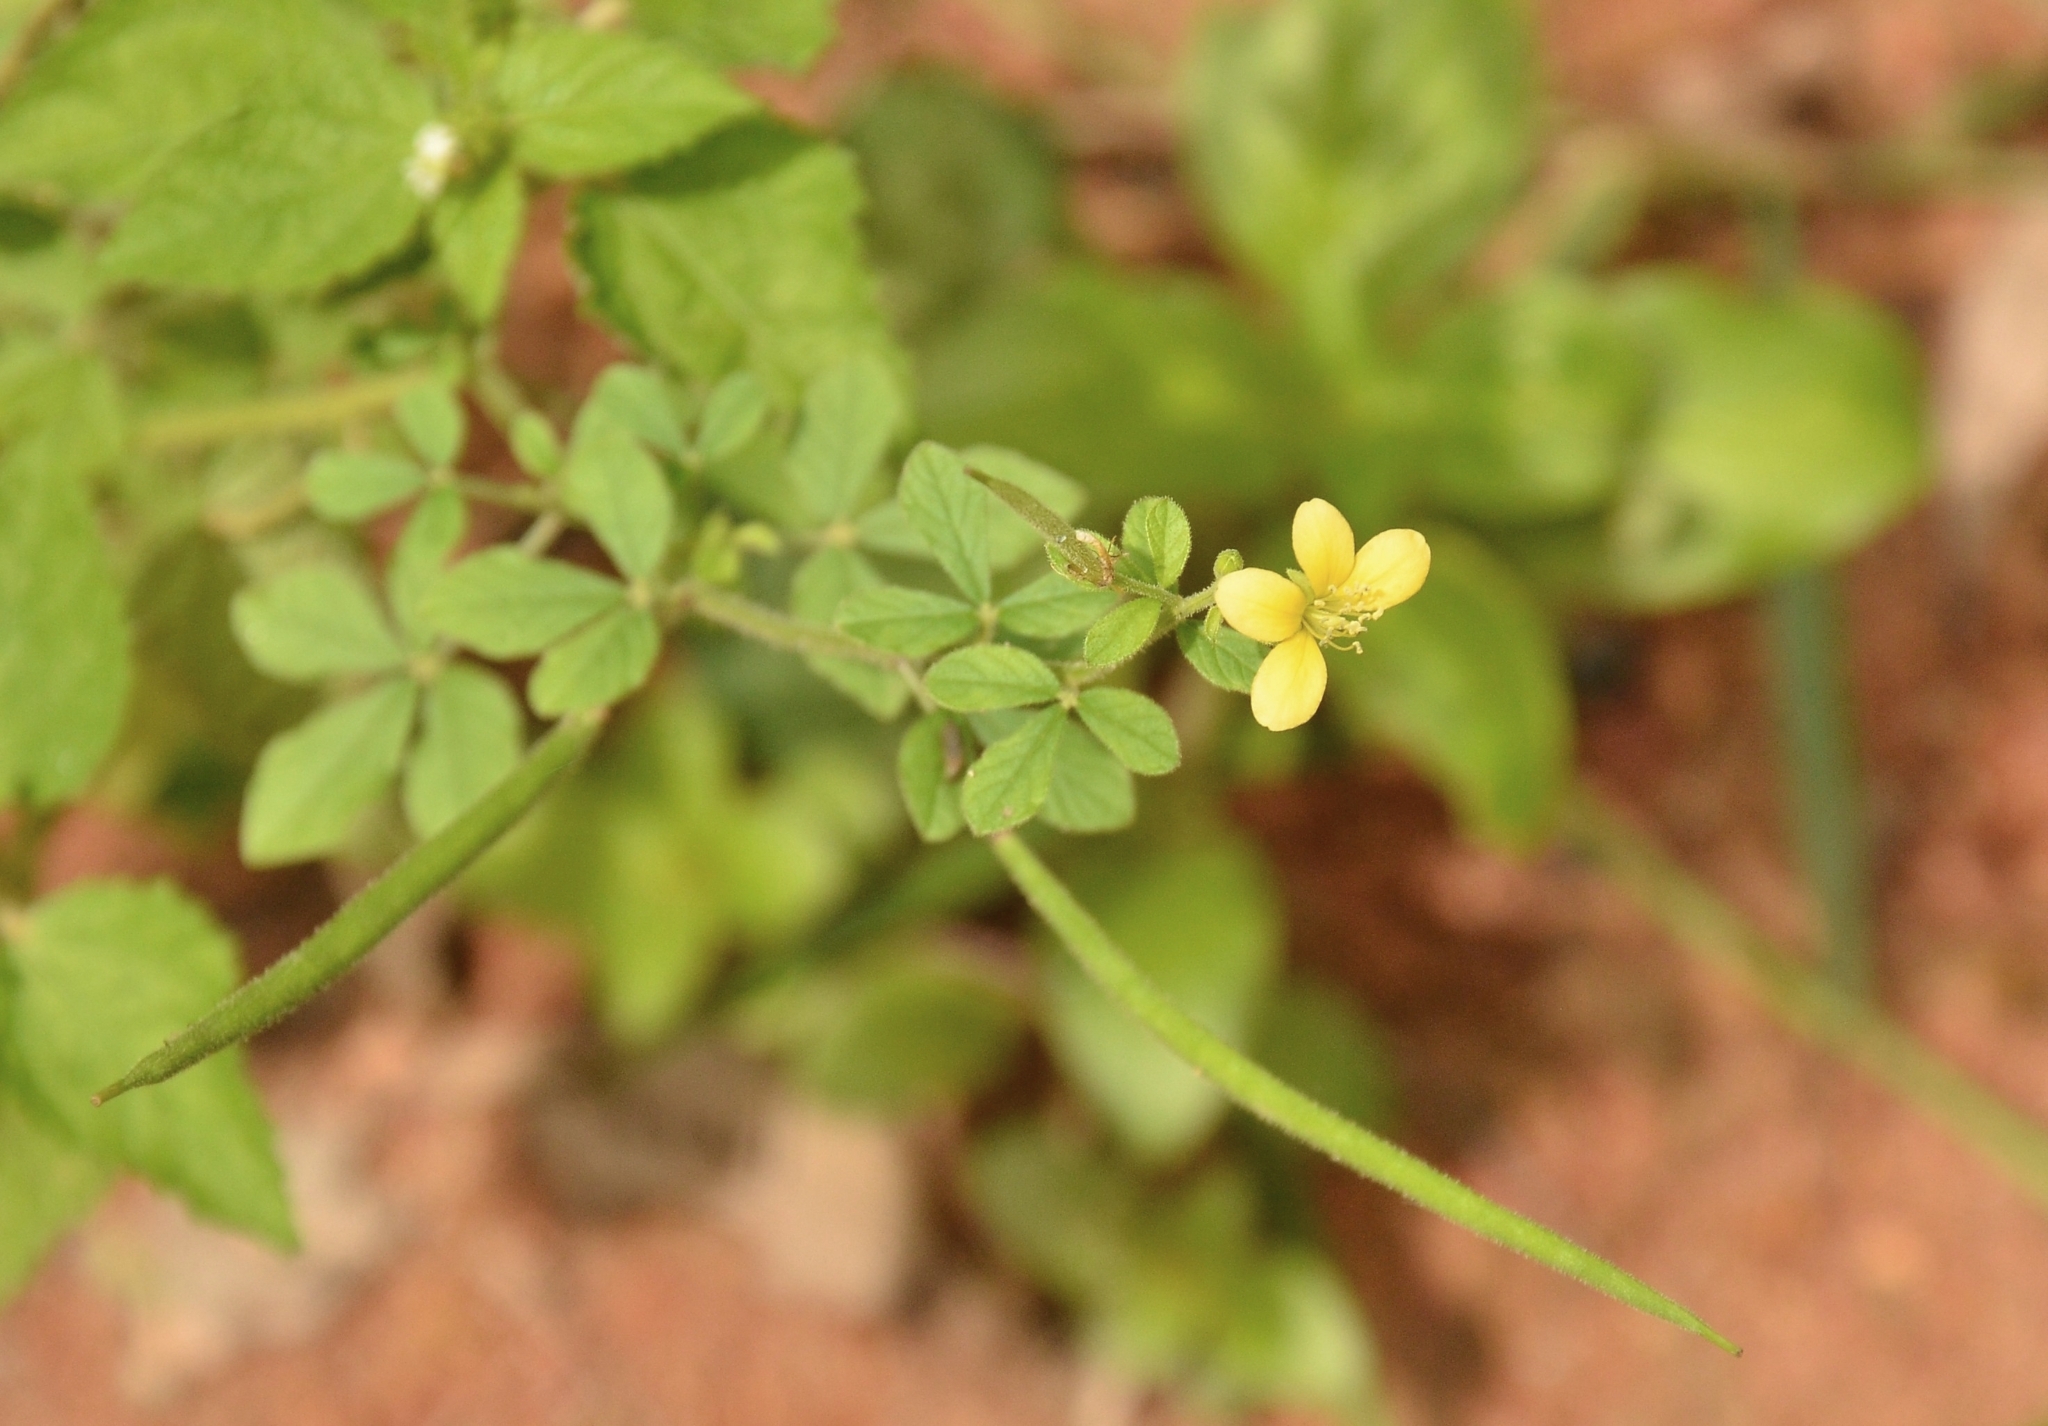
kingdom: Plantae
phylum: Tracheophyta
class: Magnoliopsida
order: Brassicales
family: Cleomaceae
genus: Arivela
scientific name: Arivela viscosa
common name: Asian spiderflower
